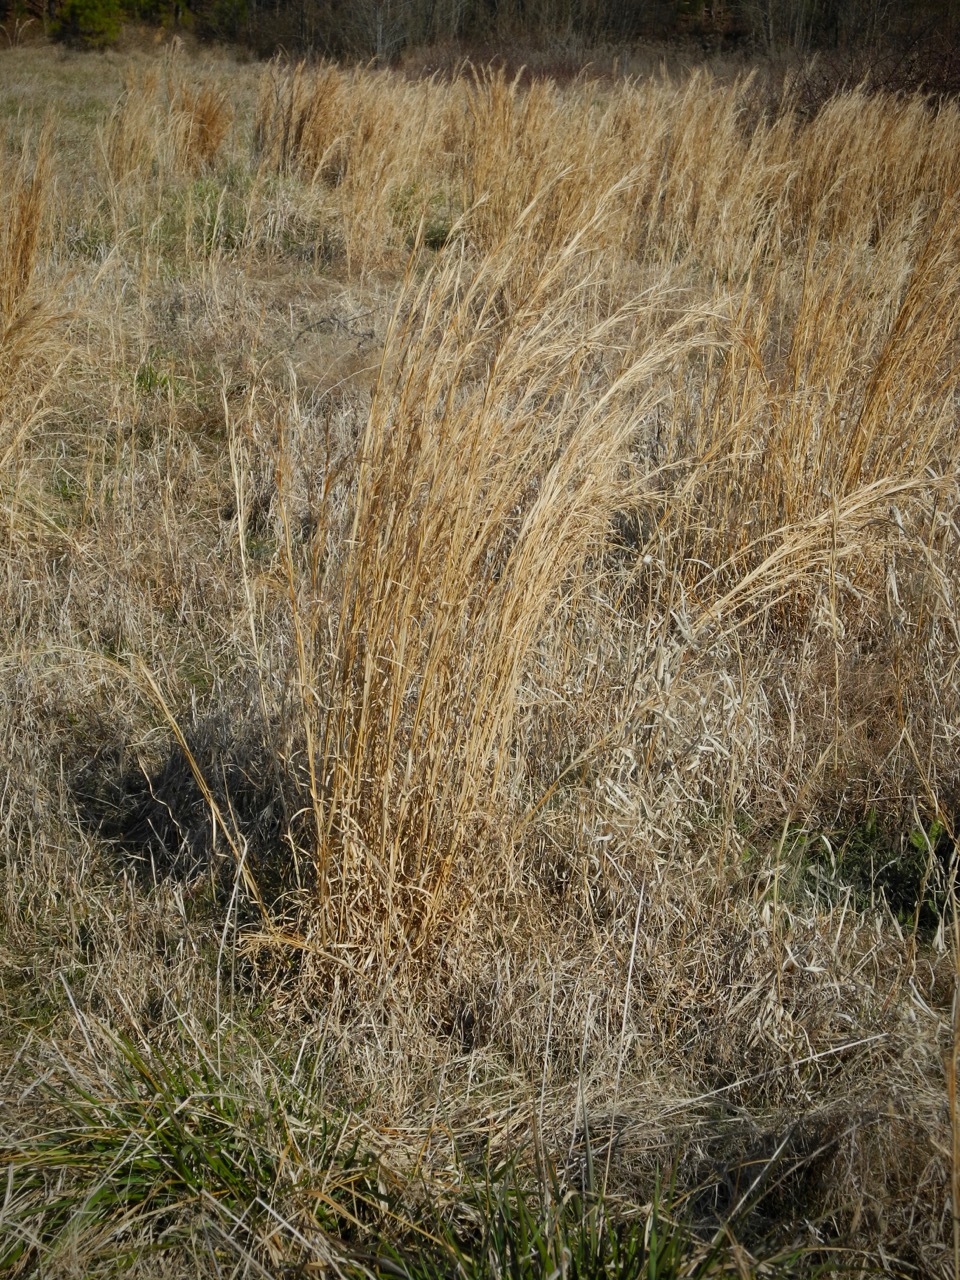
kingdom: Plantae
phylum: Tracheophyta
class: Liliopsida
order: Poales
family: Poaceae
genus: Schizachyrium
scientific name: Schizachyrium scoparium
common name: Little bluestem
